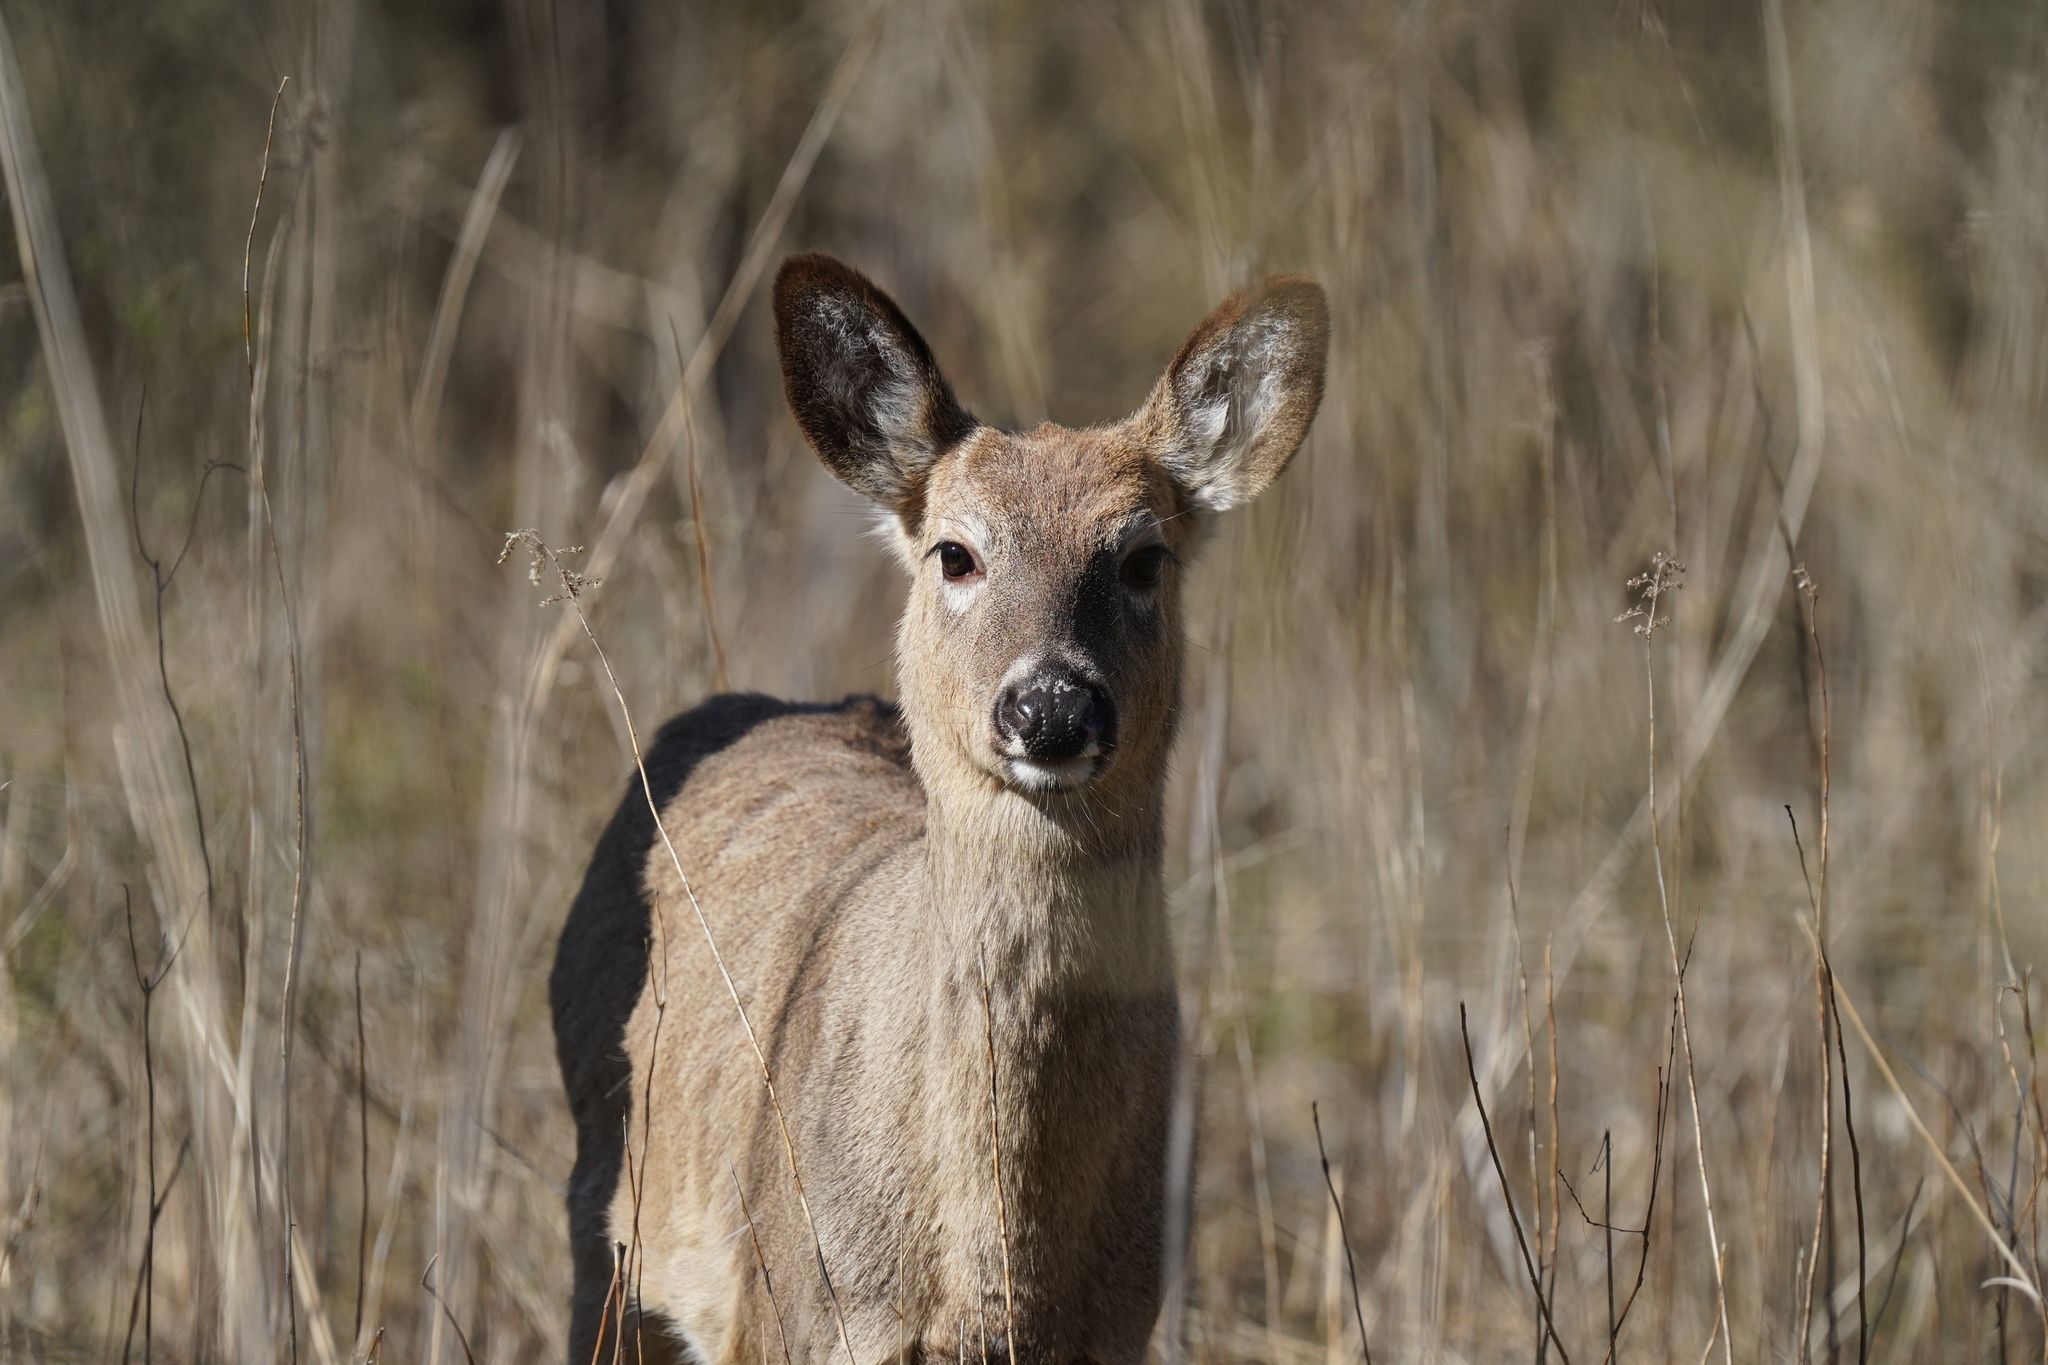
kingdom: Animalia
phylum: Chordata
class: Mammalia
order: Artiodactyla
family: Cervidae
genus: Odocoileus
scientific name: Odocoileus virginianus
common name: White-tailed deer
